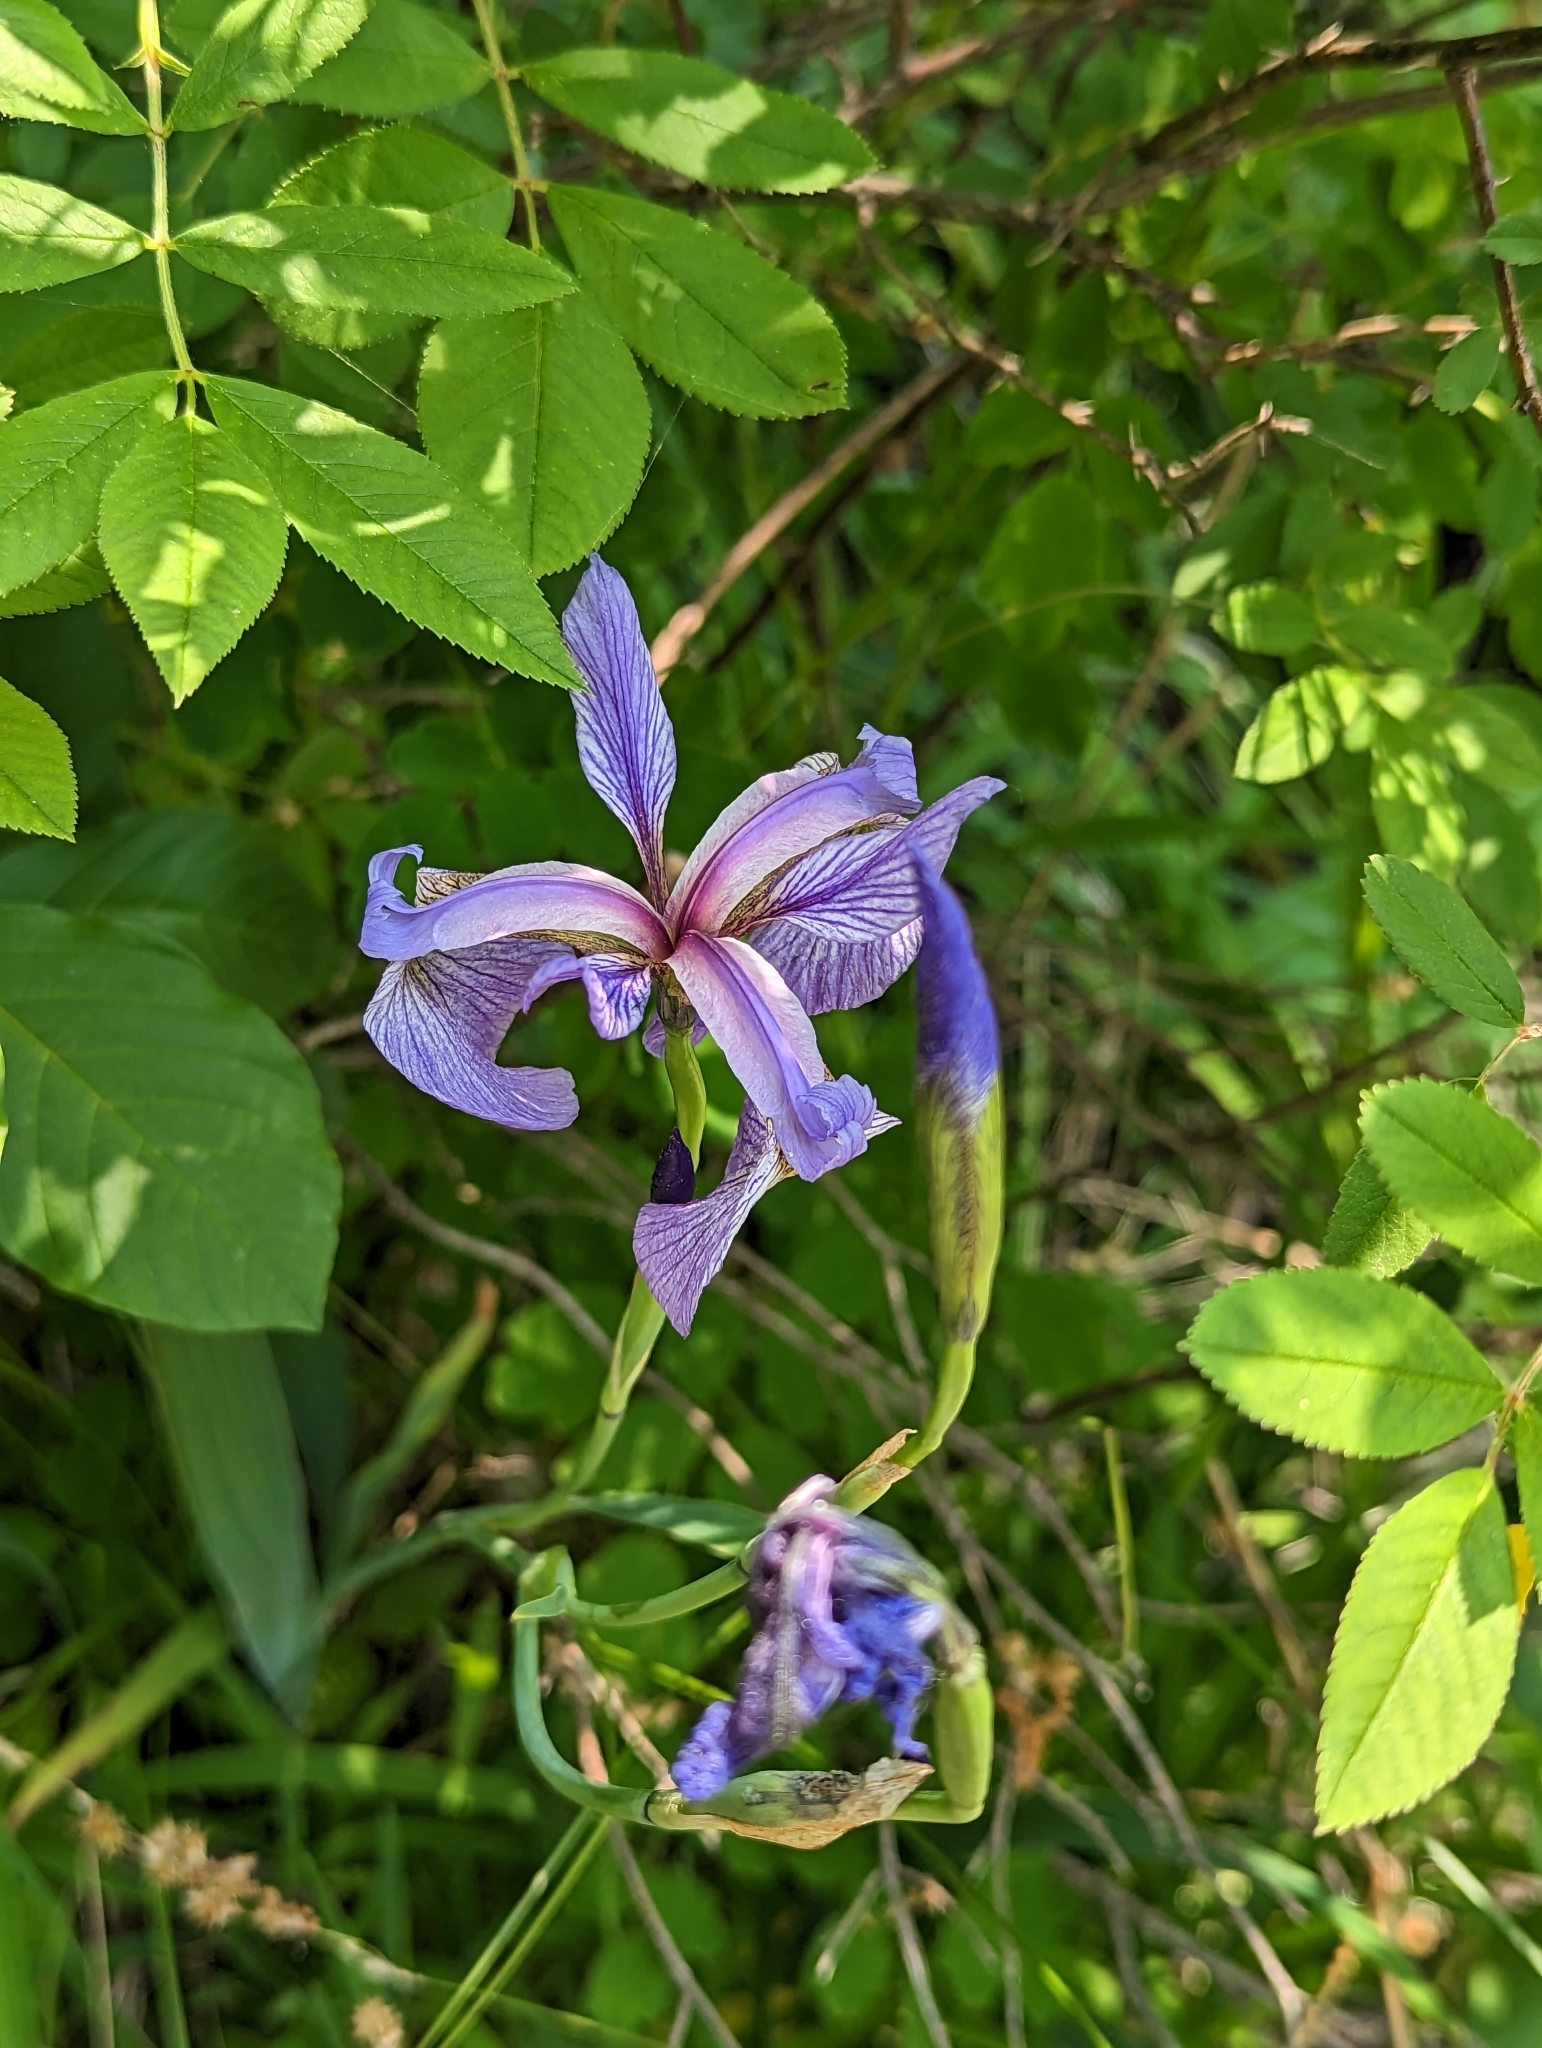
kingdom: Plantae
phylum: Tracheophyta
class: Liliopsida
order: Asparagales
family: Iridaceae
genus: Iris
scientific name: Iris versicolor
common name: Purple iris
